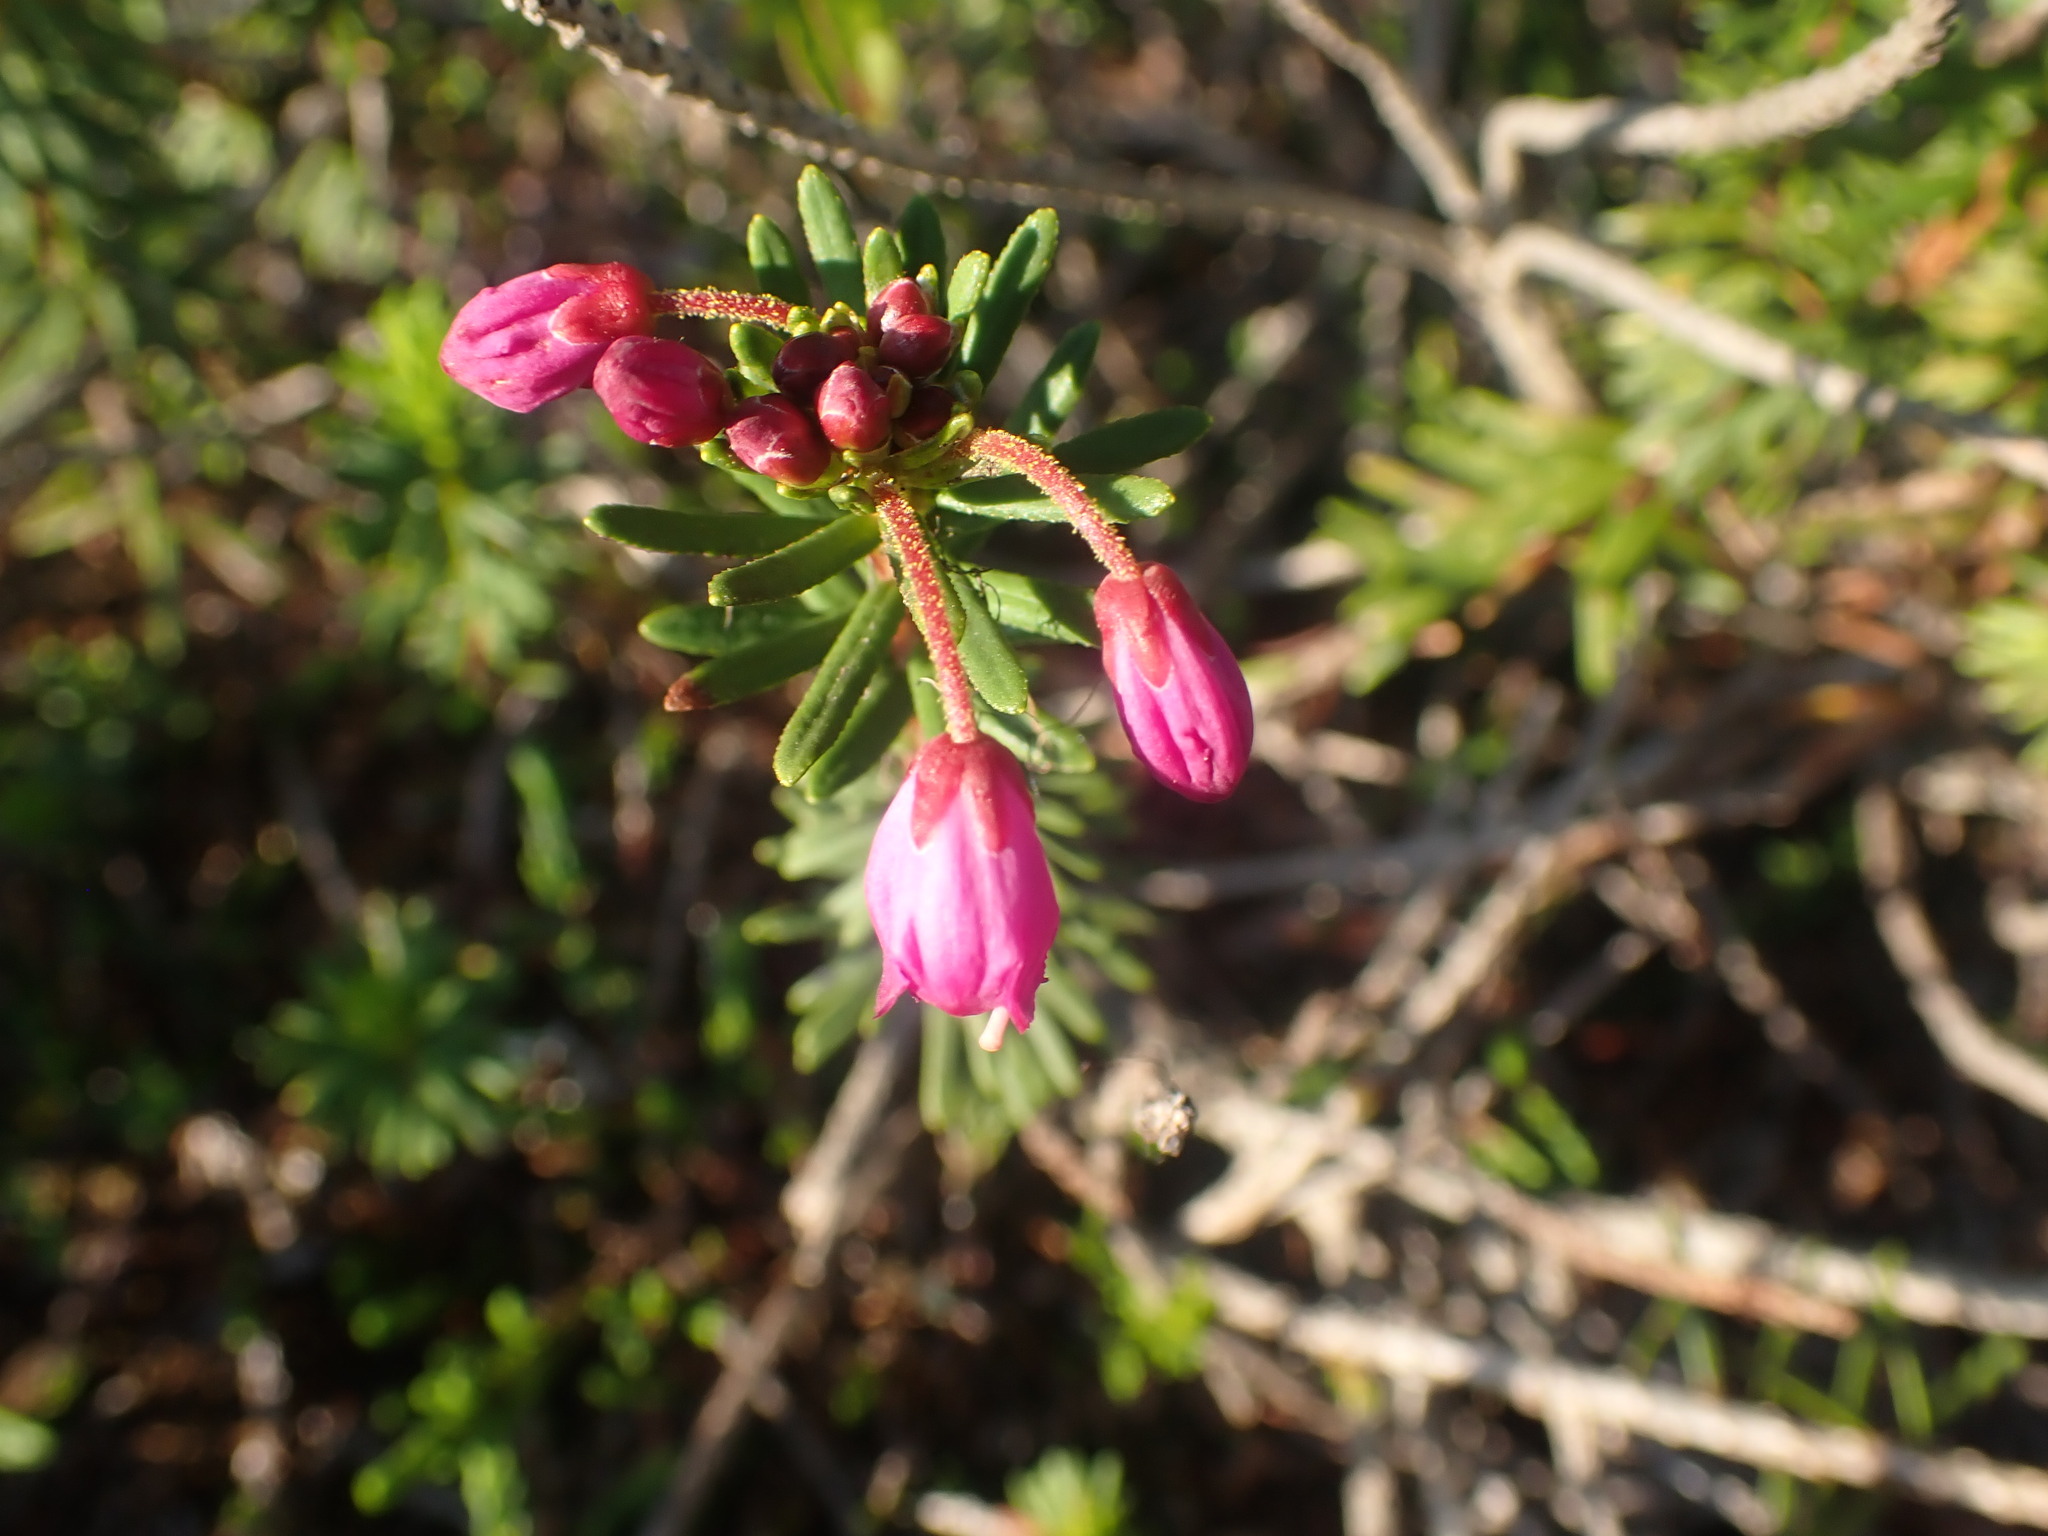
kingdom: Plantae
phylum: Tracheophyta
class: Magnoliopsida
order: Ericales
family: Ericaceae
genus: Phyllodoce
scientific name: Phyllodoce empetriformis
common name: Pink mountain heather
